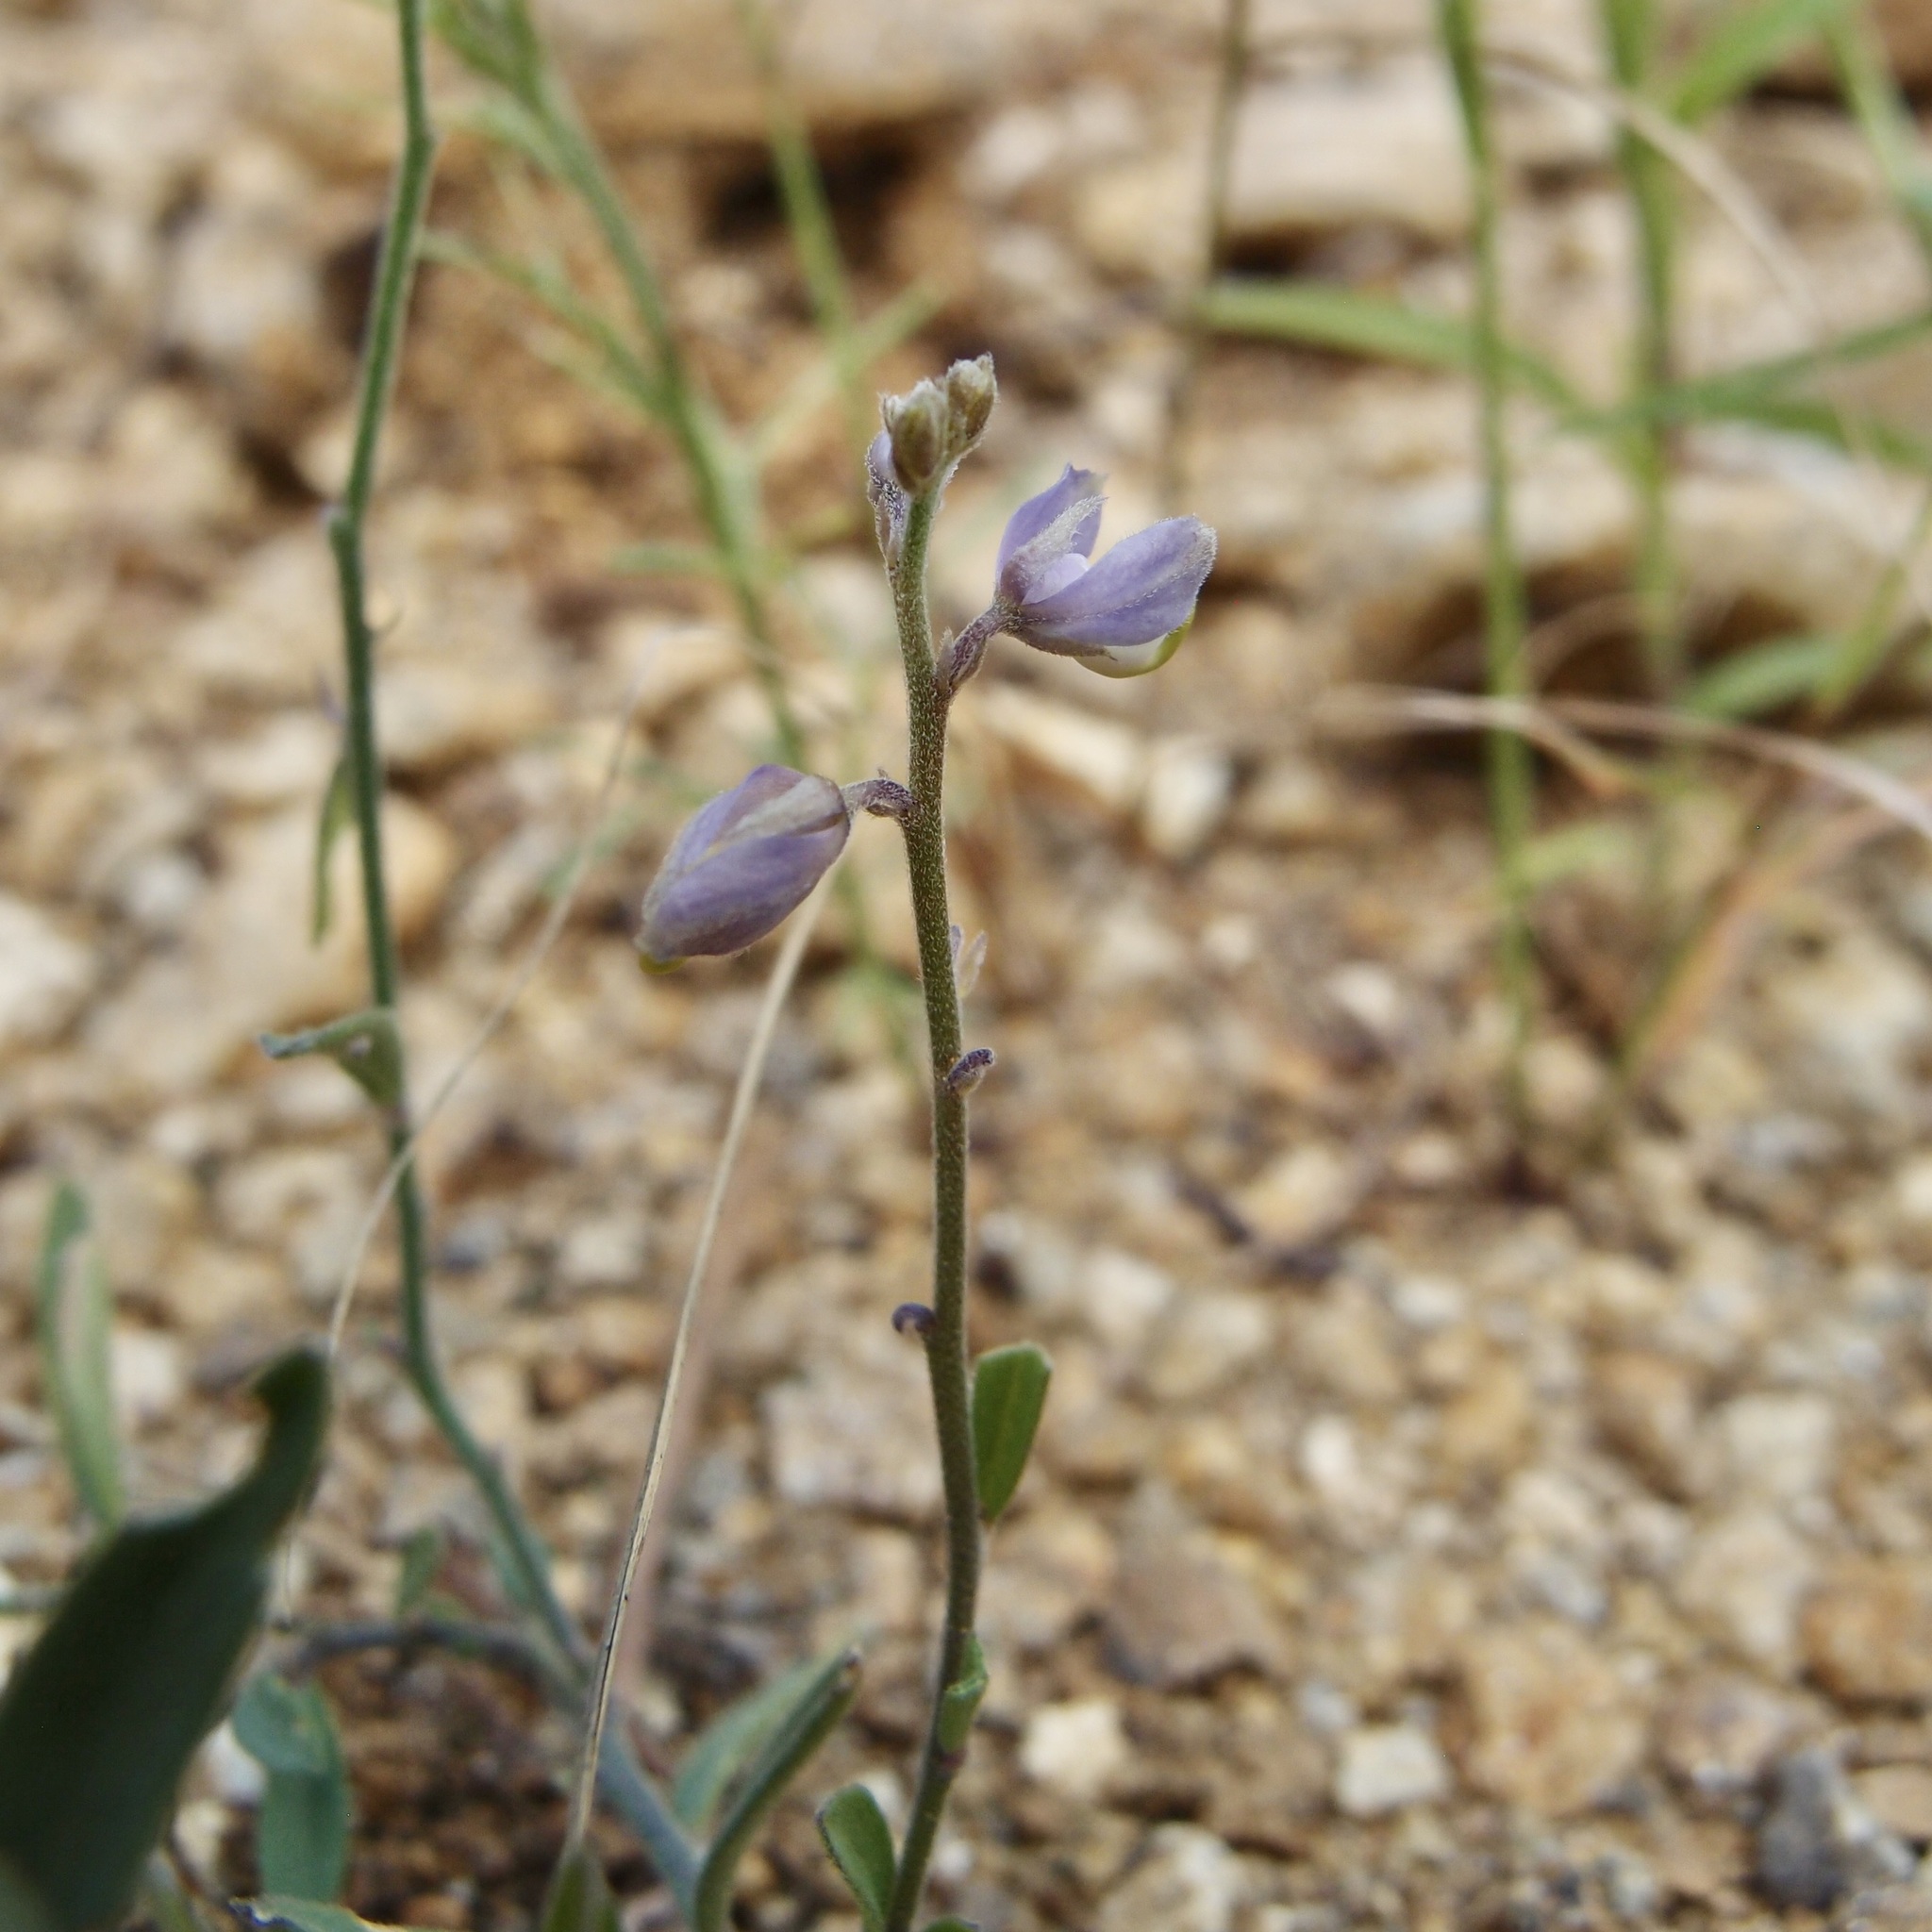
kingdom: Plantae
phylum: Tracheophyta
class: Magnoliopsida
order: Fabales
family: Polygalaceae
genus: Hebecarpa
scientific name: Hebecarpa barbeyana
